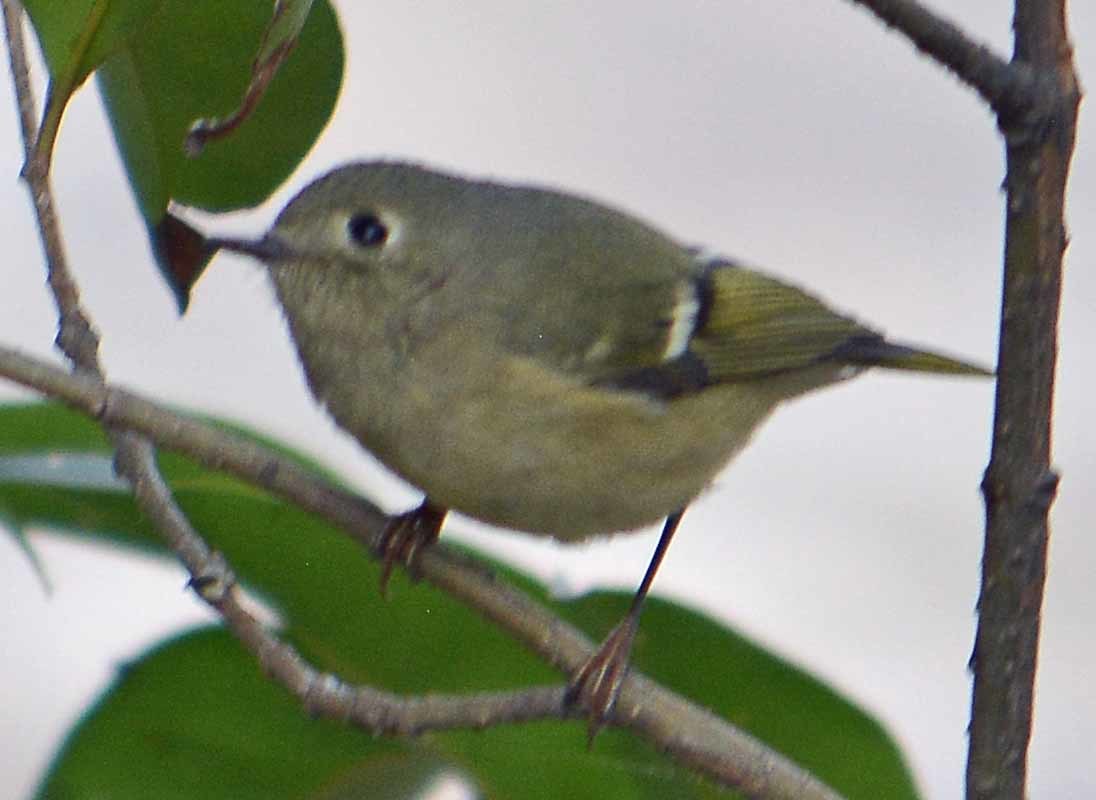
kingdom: Animalia
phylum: Chordata
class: Aves
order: Passeriformes
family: Regulidae
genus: Regulus
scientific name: Regulus calendula
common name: Ruby-crowned kinglet
